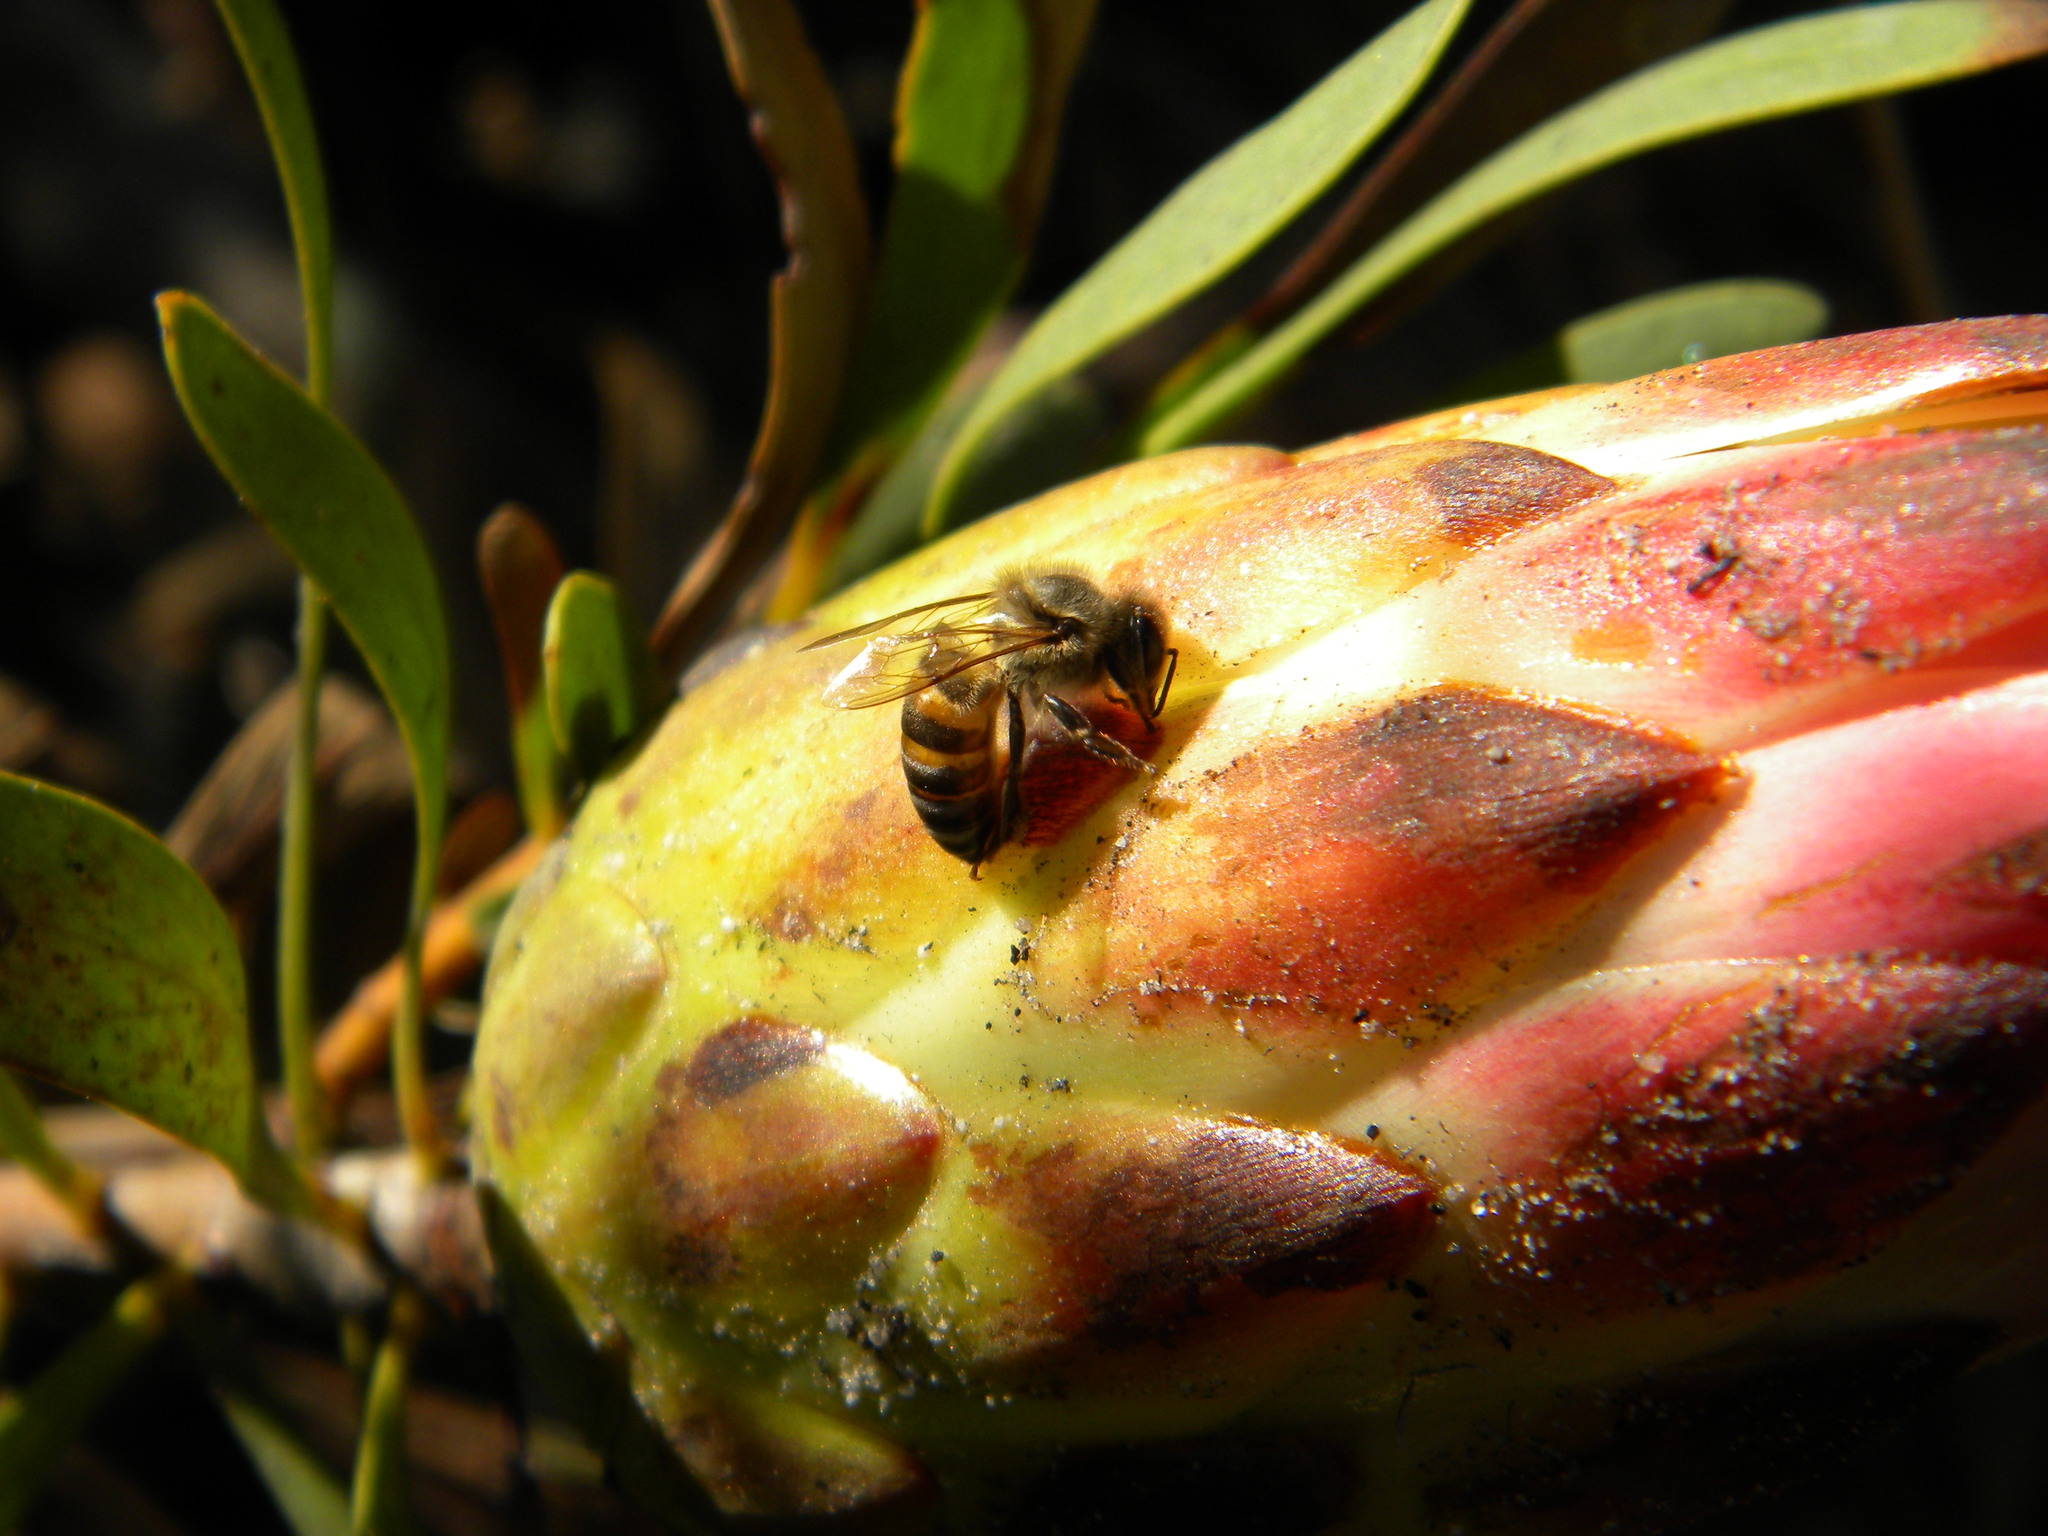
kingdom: Animalia
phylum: Arthropoda
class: Insecta
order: Hymenoptera
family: Apidae
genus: Apis
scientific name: Apis mellifera
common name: Honey bee
